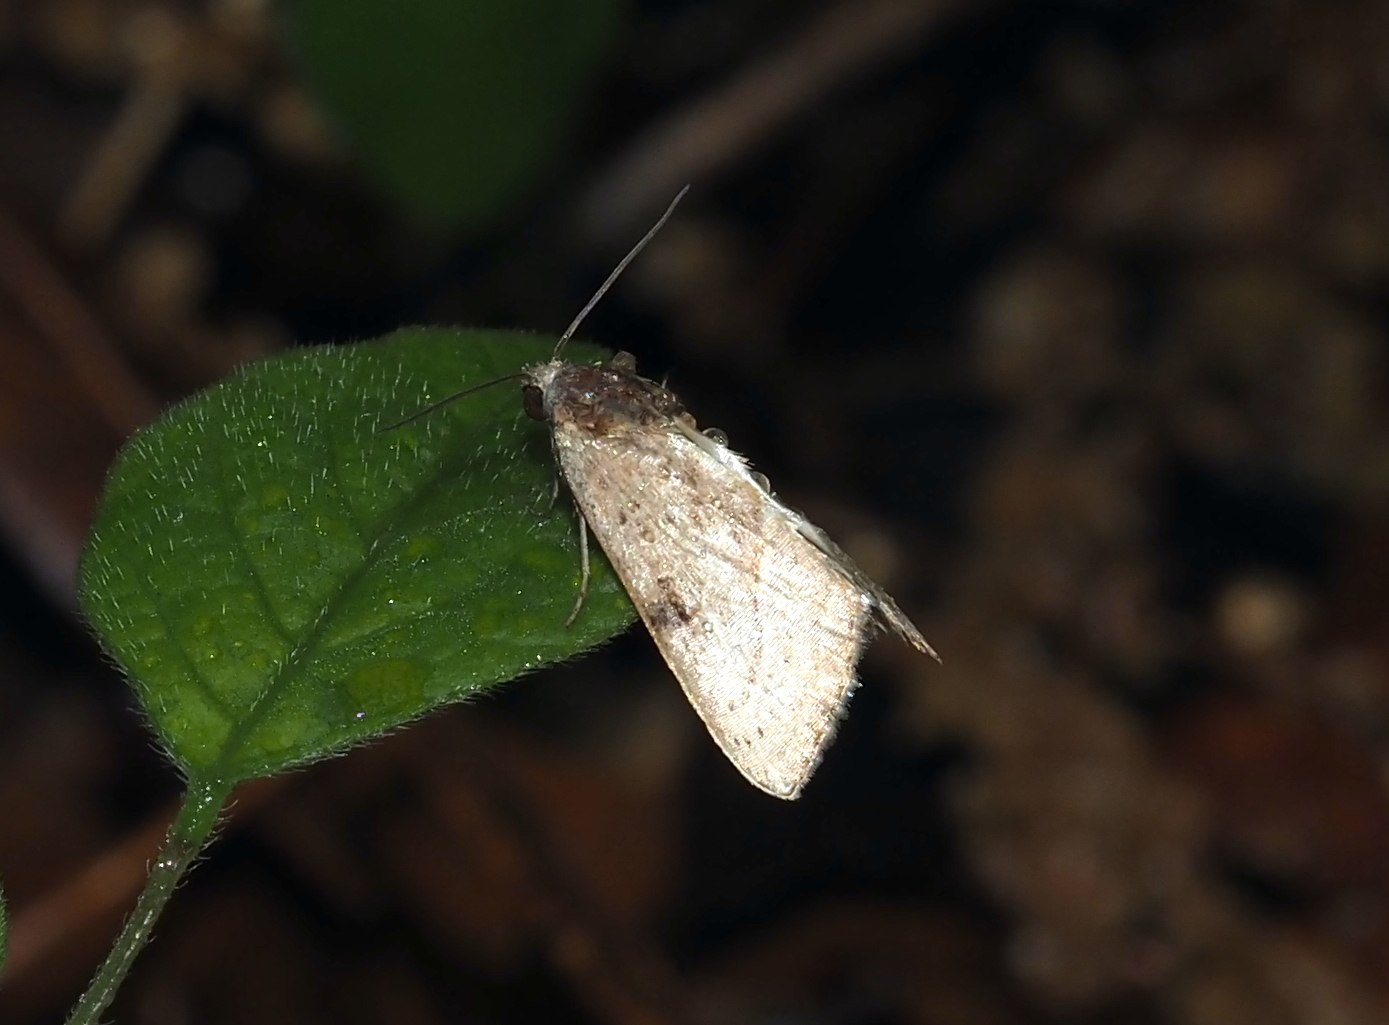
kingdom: Animalia
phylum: Arthropoda
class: Insecta
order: Lepidoptera
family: Noctuidae
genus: Galgula
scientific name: Galgula partita
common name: Wedgeling
